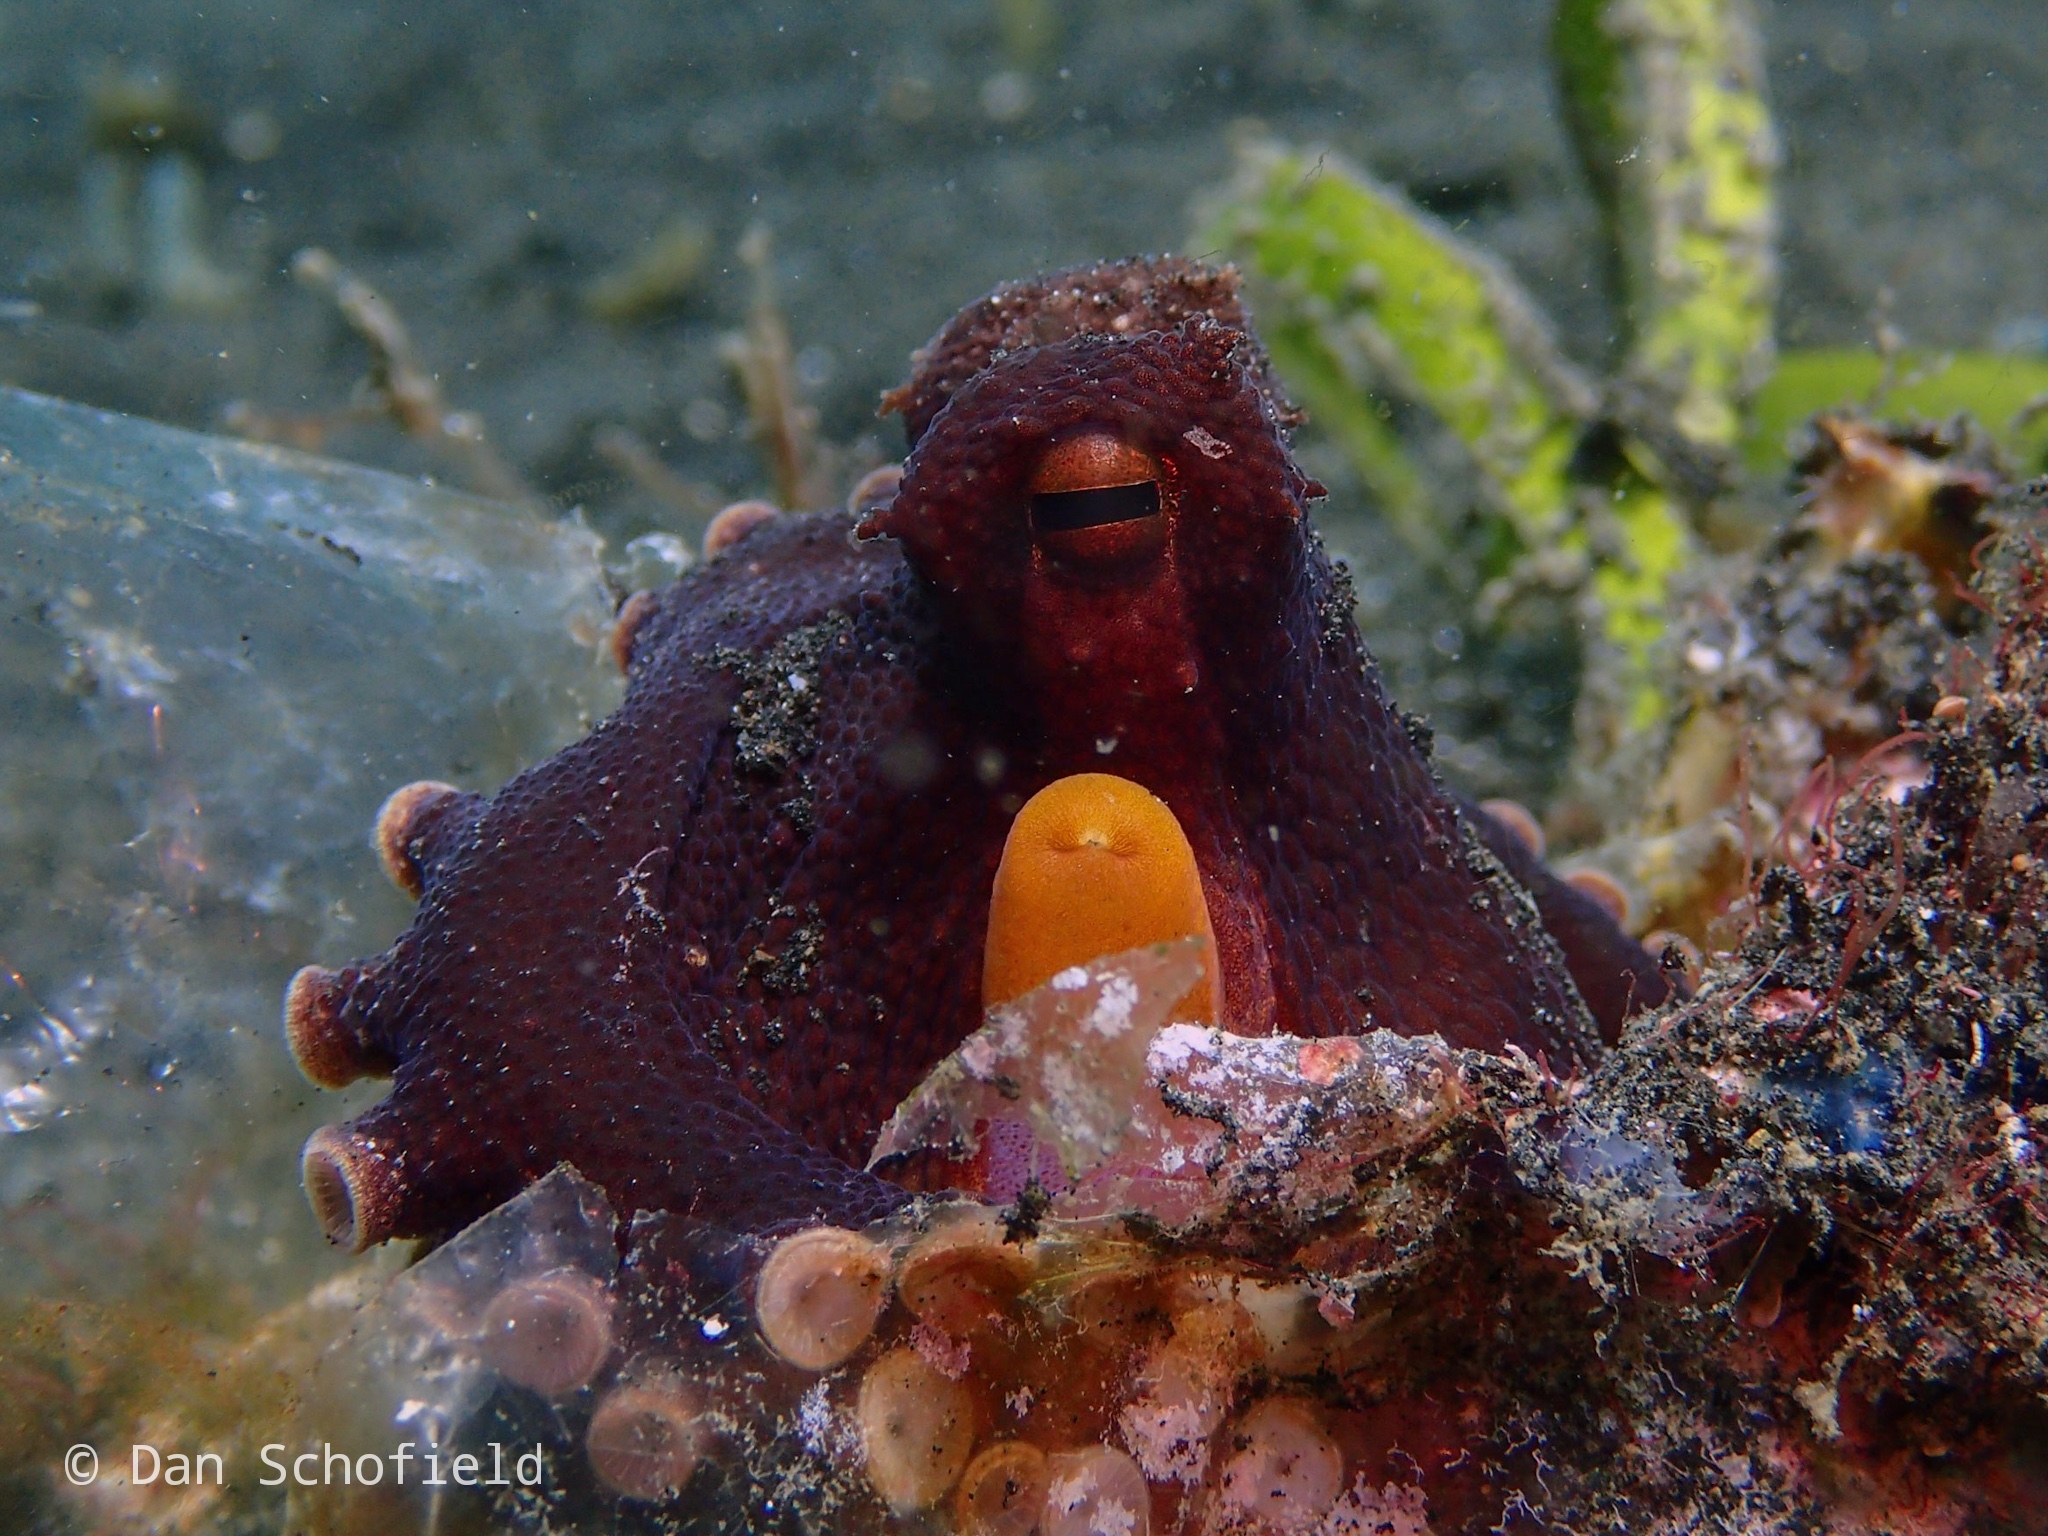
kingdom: Animalia
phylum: Mollusca
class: Cephalopoda
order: Octopoda
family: Octopodidae
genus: Amphioctopus
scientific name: Amphioctopus marginatus
